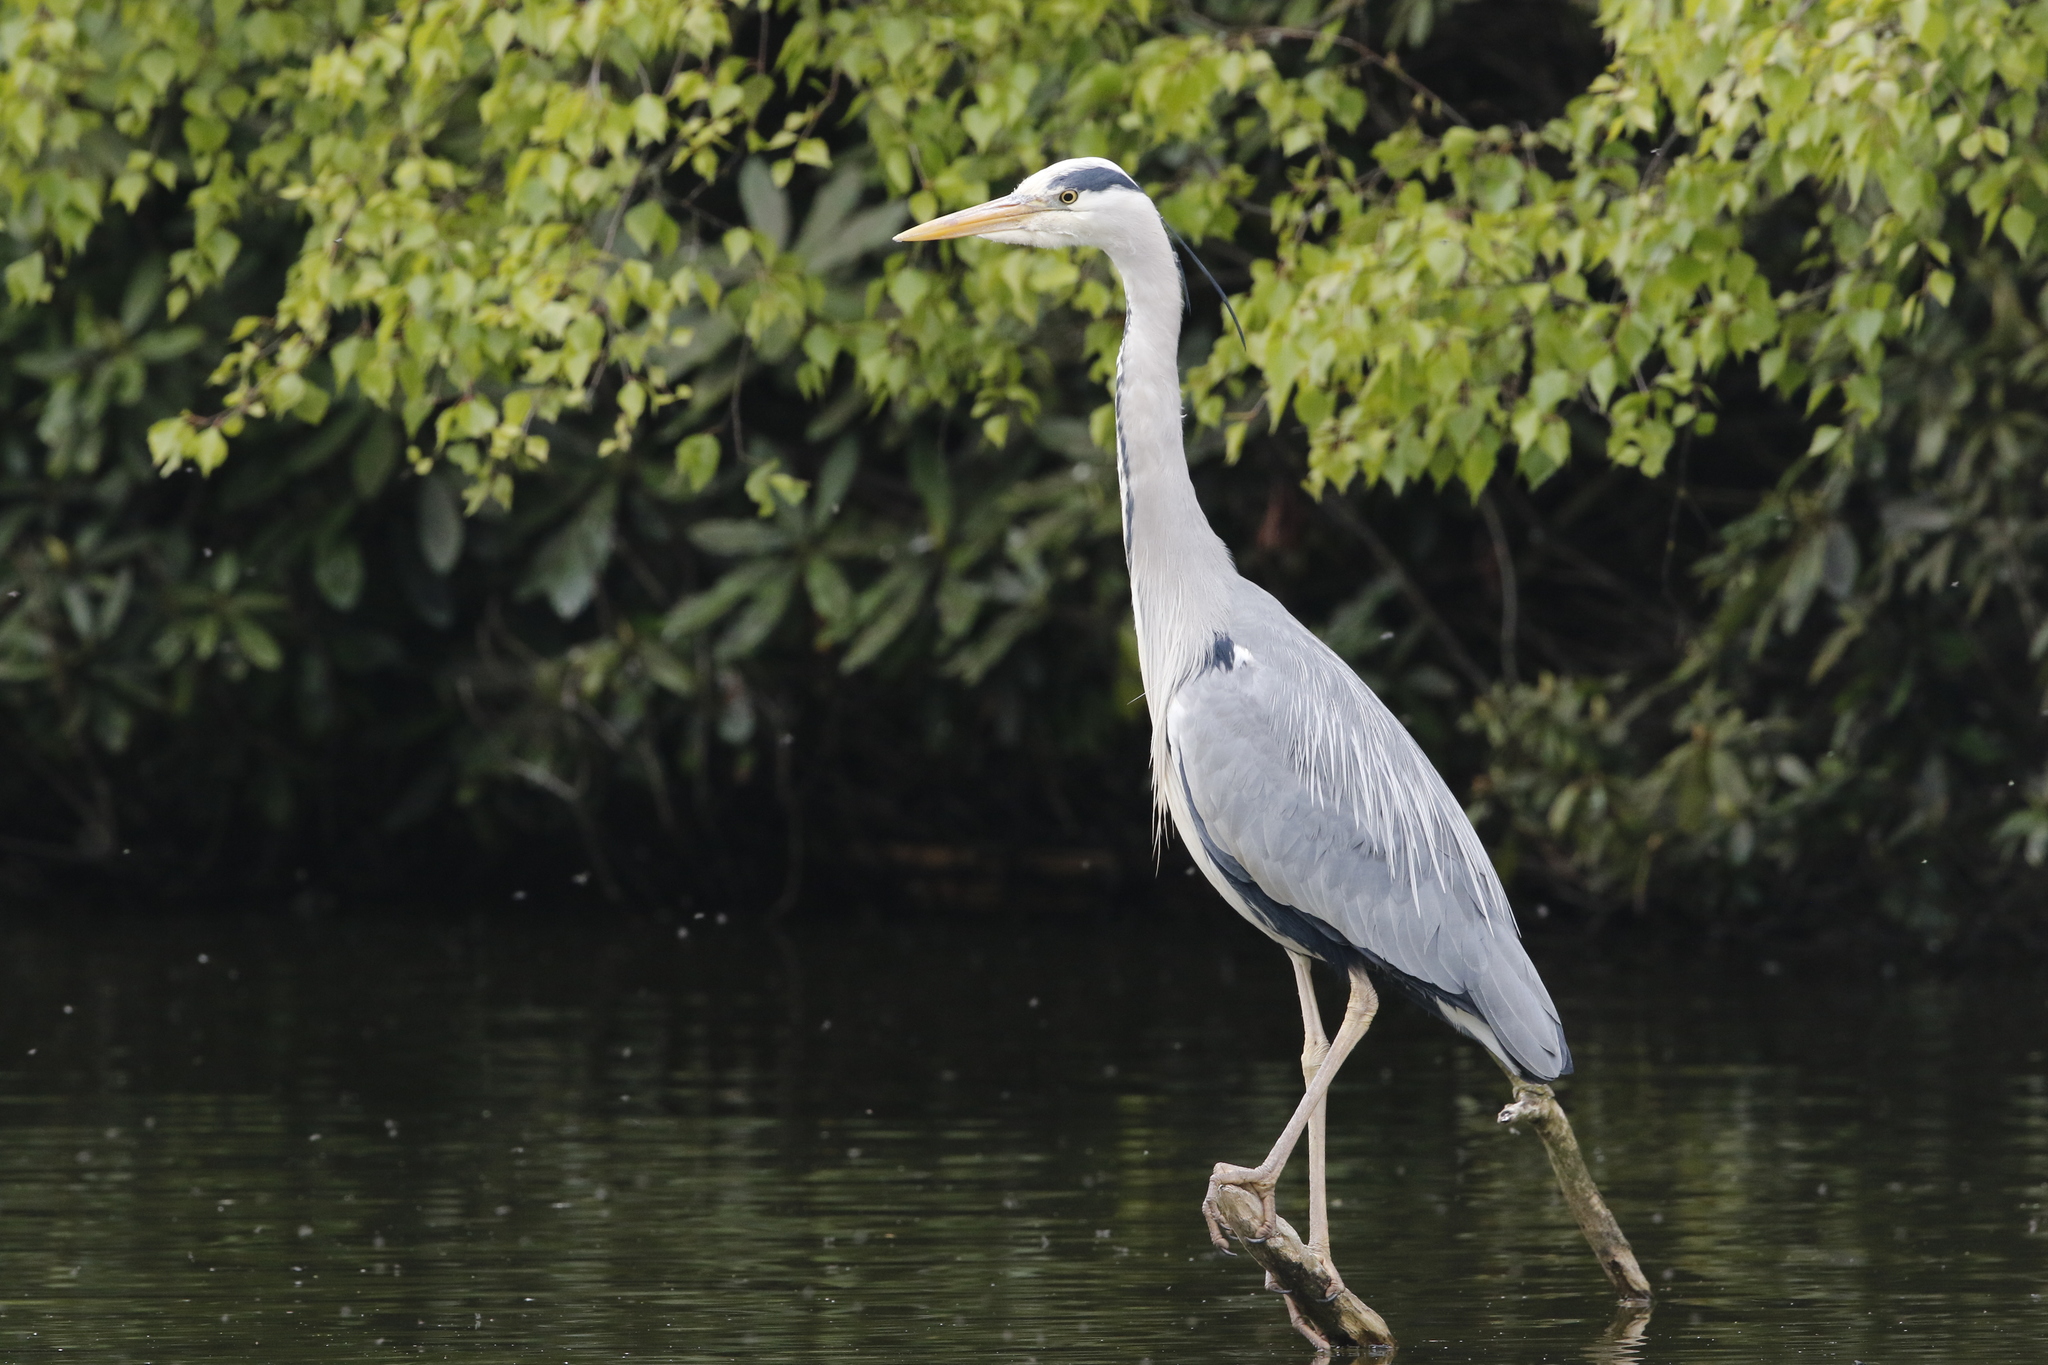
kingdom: Animalia
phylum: Chordata
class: Aves
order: Pelecaniformes
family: Ardeidae
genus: Ardea
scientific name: Ardea cinerea
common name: Grey heron
